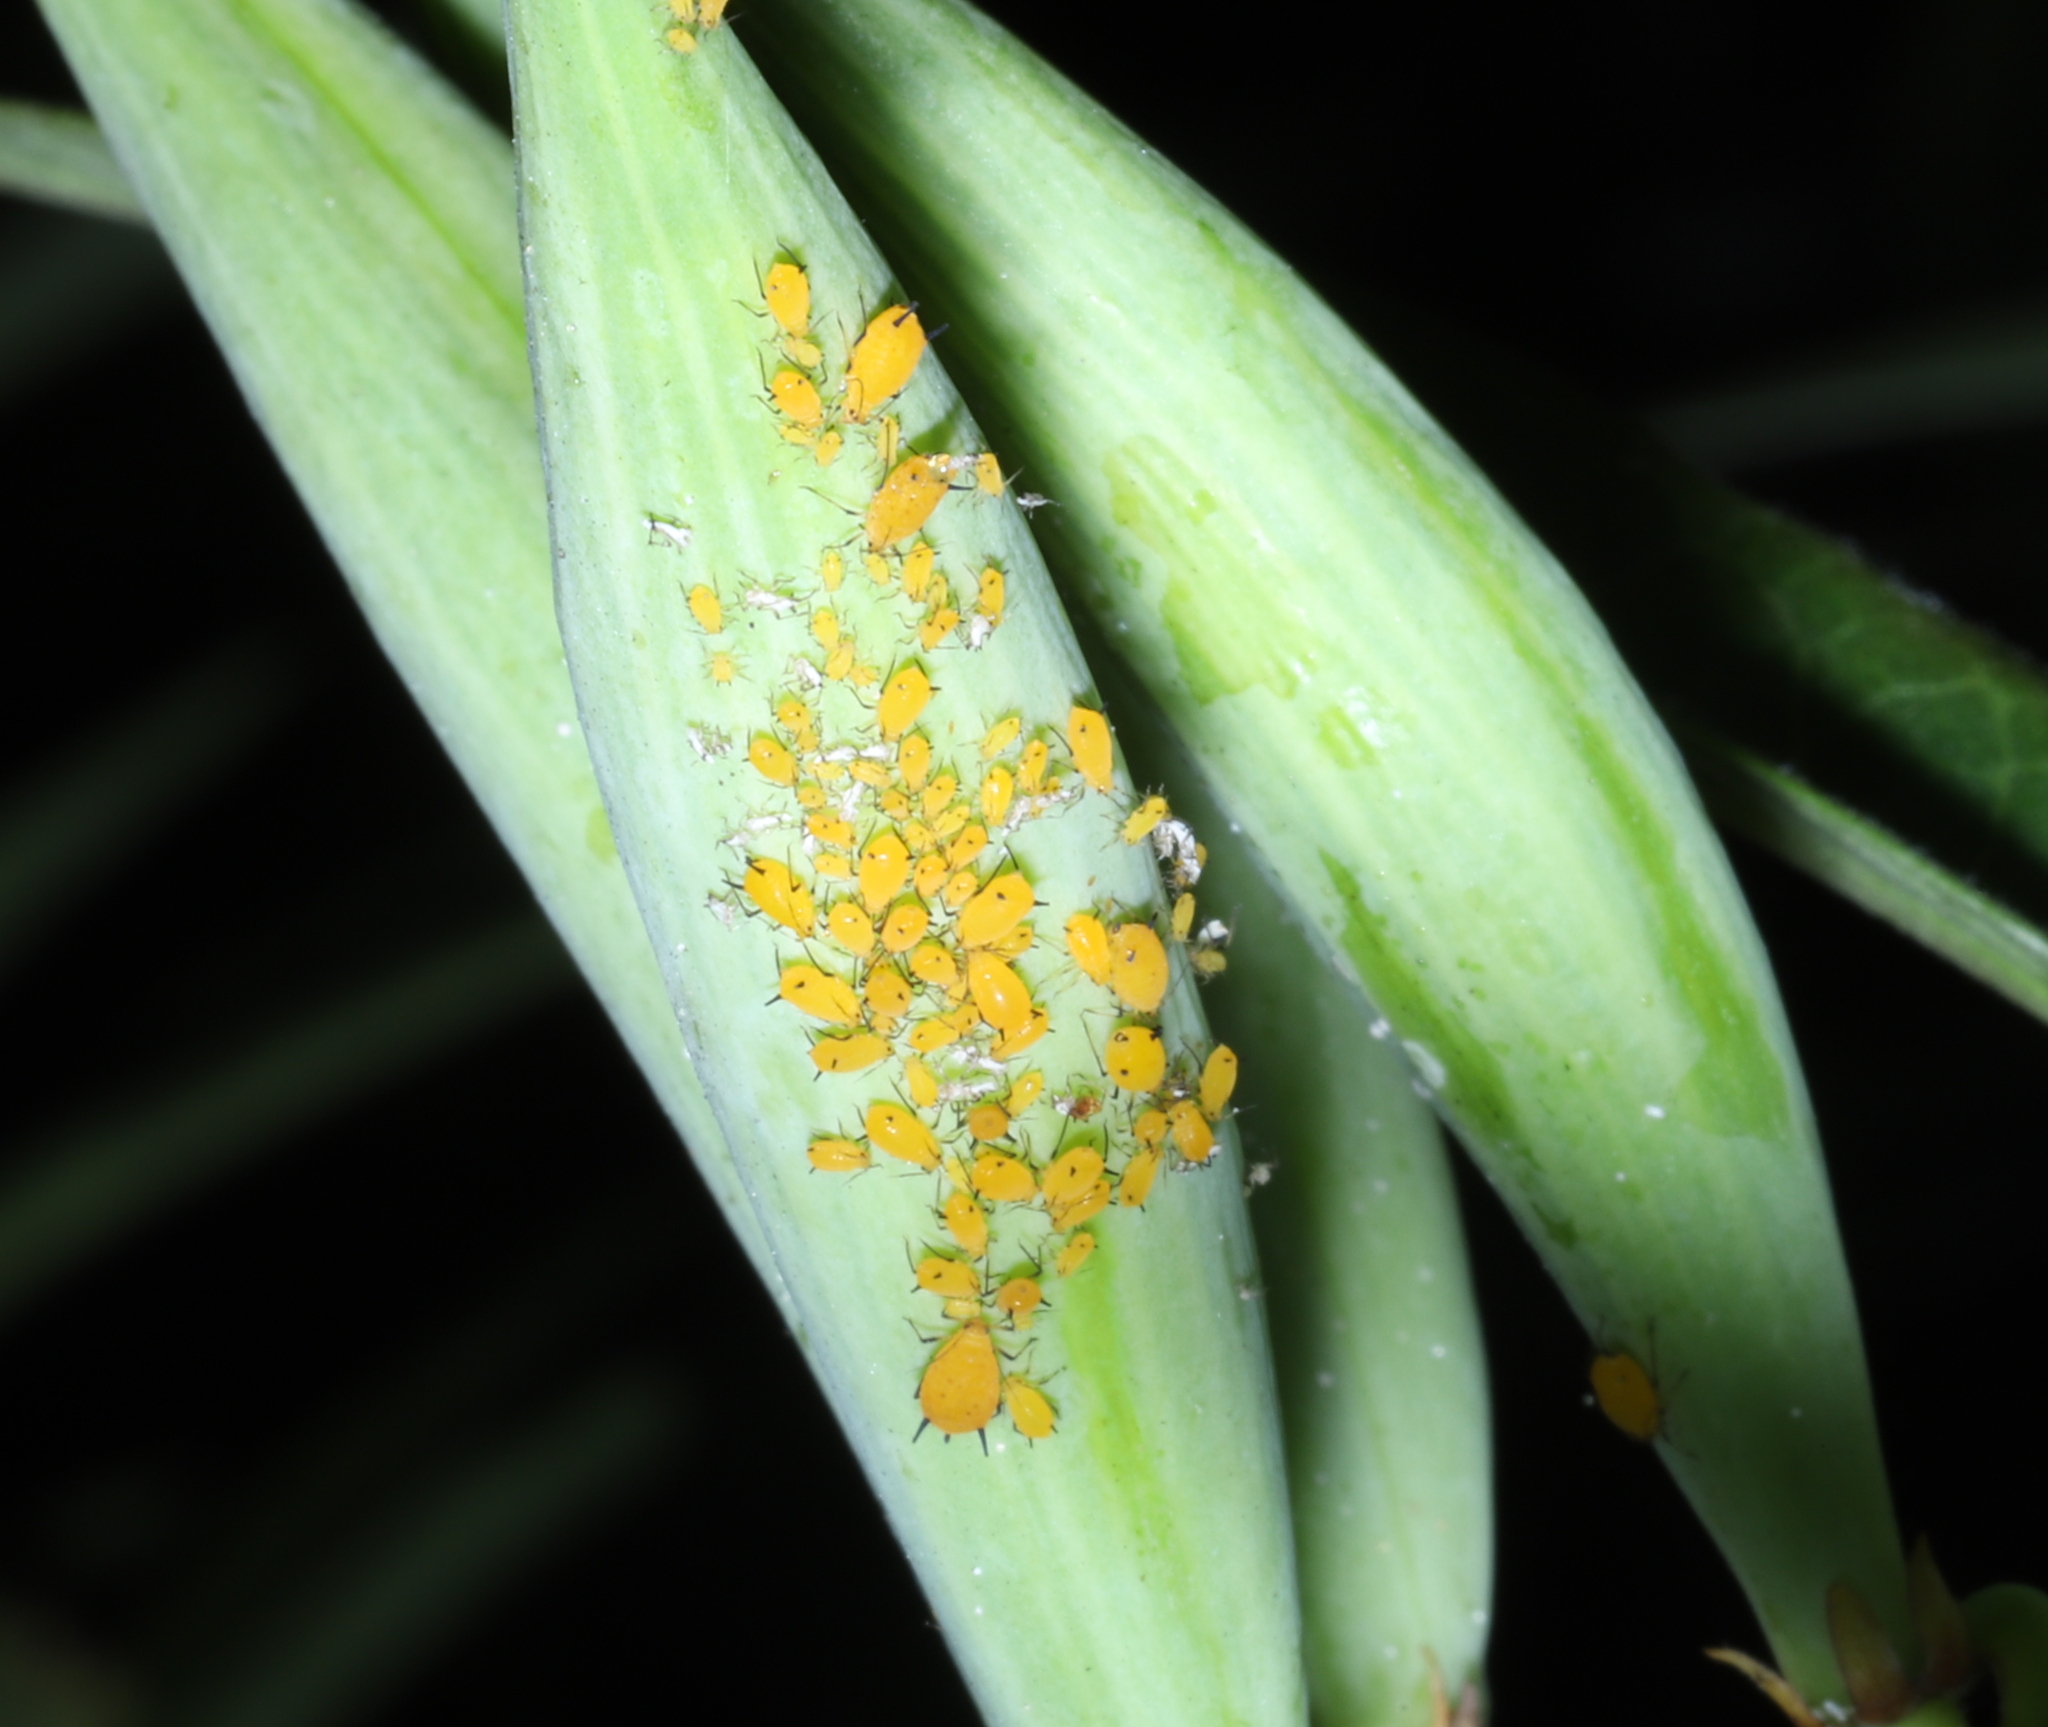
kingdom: Animalia
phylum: Arthropoda
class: Insecta
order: Hemiptera
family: Aphididae
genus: Aphis
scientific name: Aphis nerii
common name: Oleander aphid
